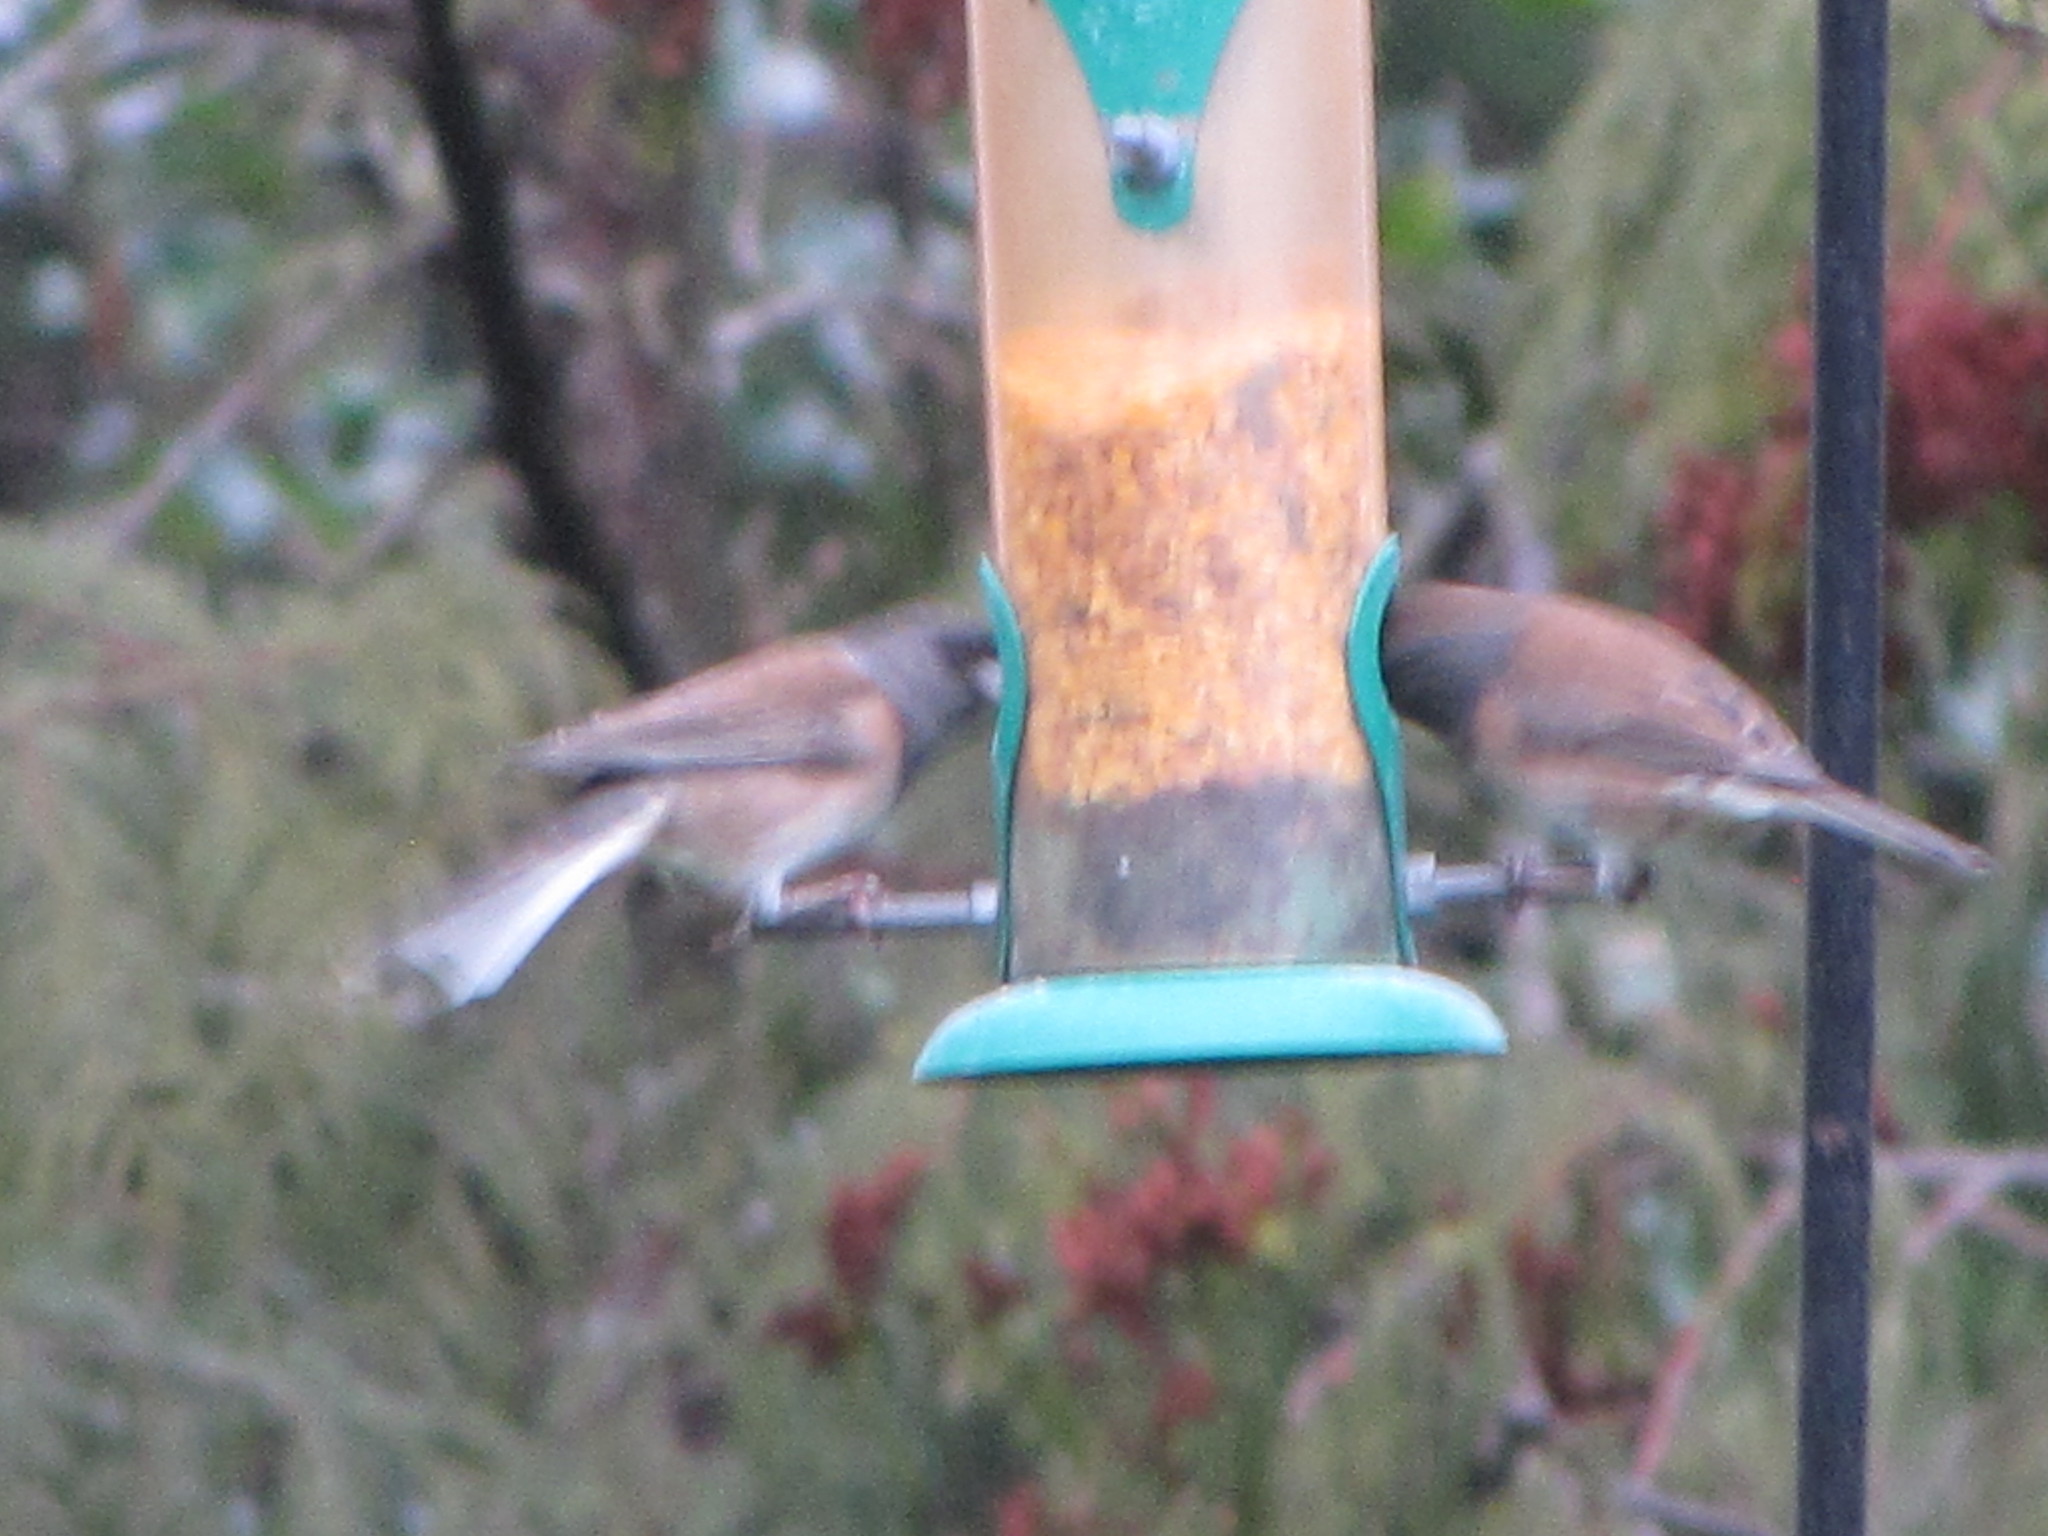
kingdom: Animalia
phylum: Chordata
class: Aves
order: Passeriformes
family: Passerellidae
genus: Junco
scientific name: Junco hyemalis
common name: Dark-eyed junco
